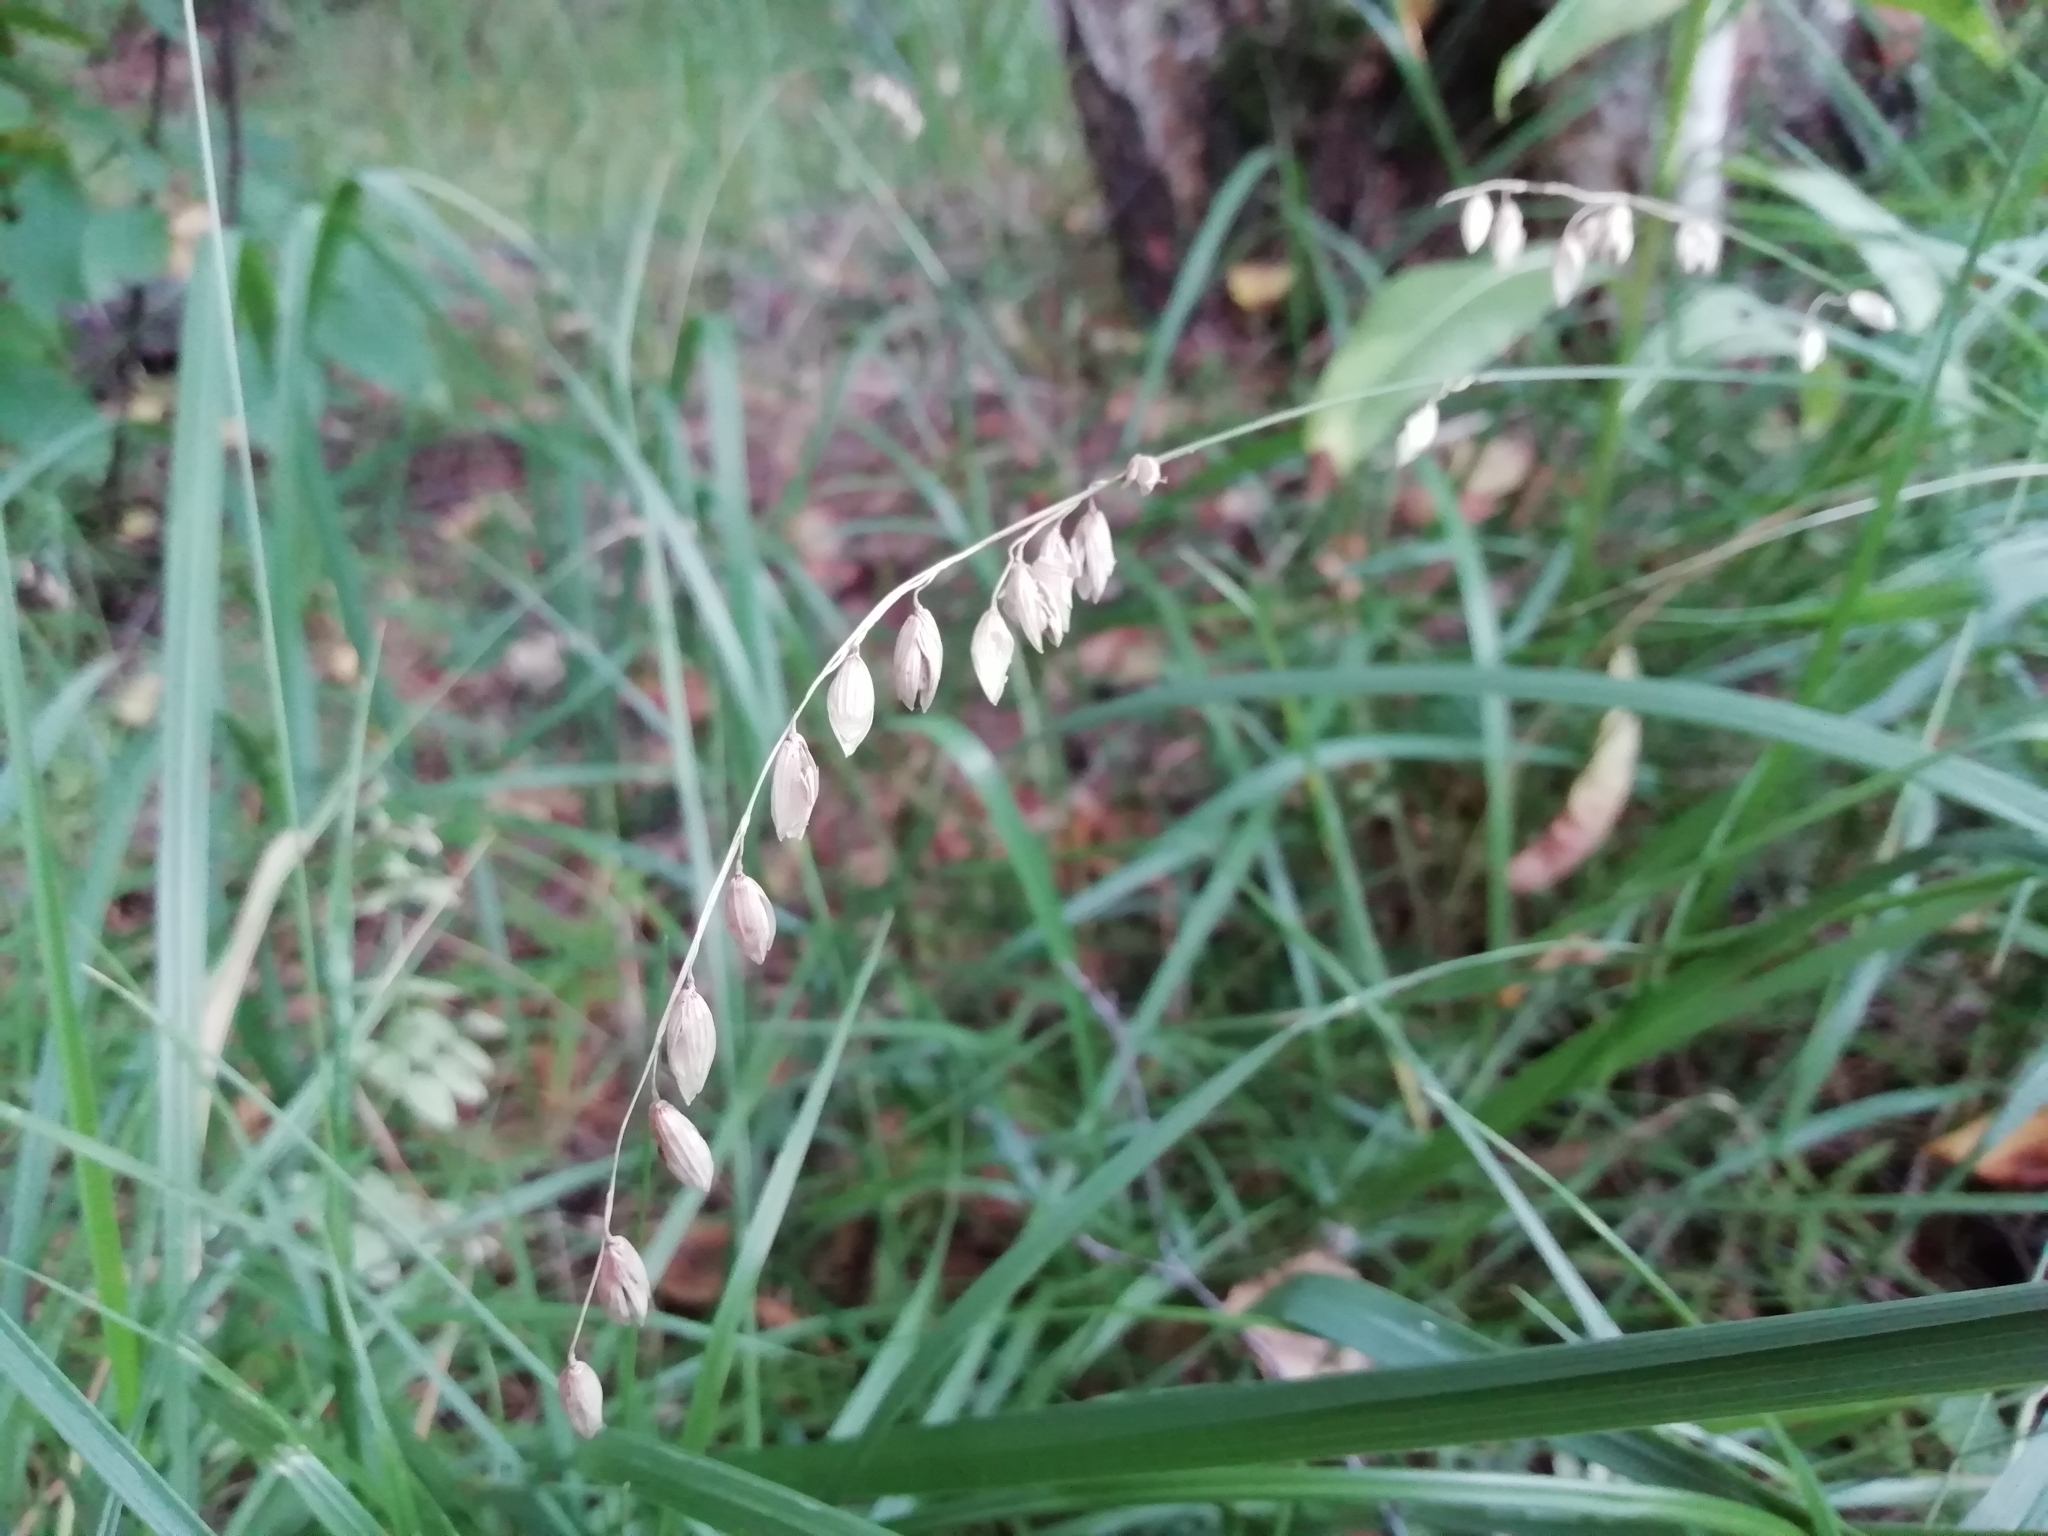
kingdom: Plantae
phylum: Tracheophyta
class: Liliopsida
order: Poales
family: Poaceae
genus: Melica
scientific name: Melica nutans
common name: Mountain melick
